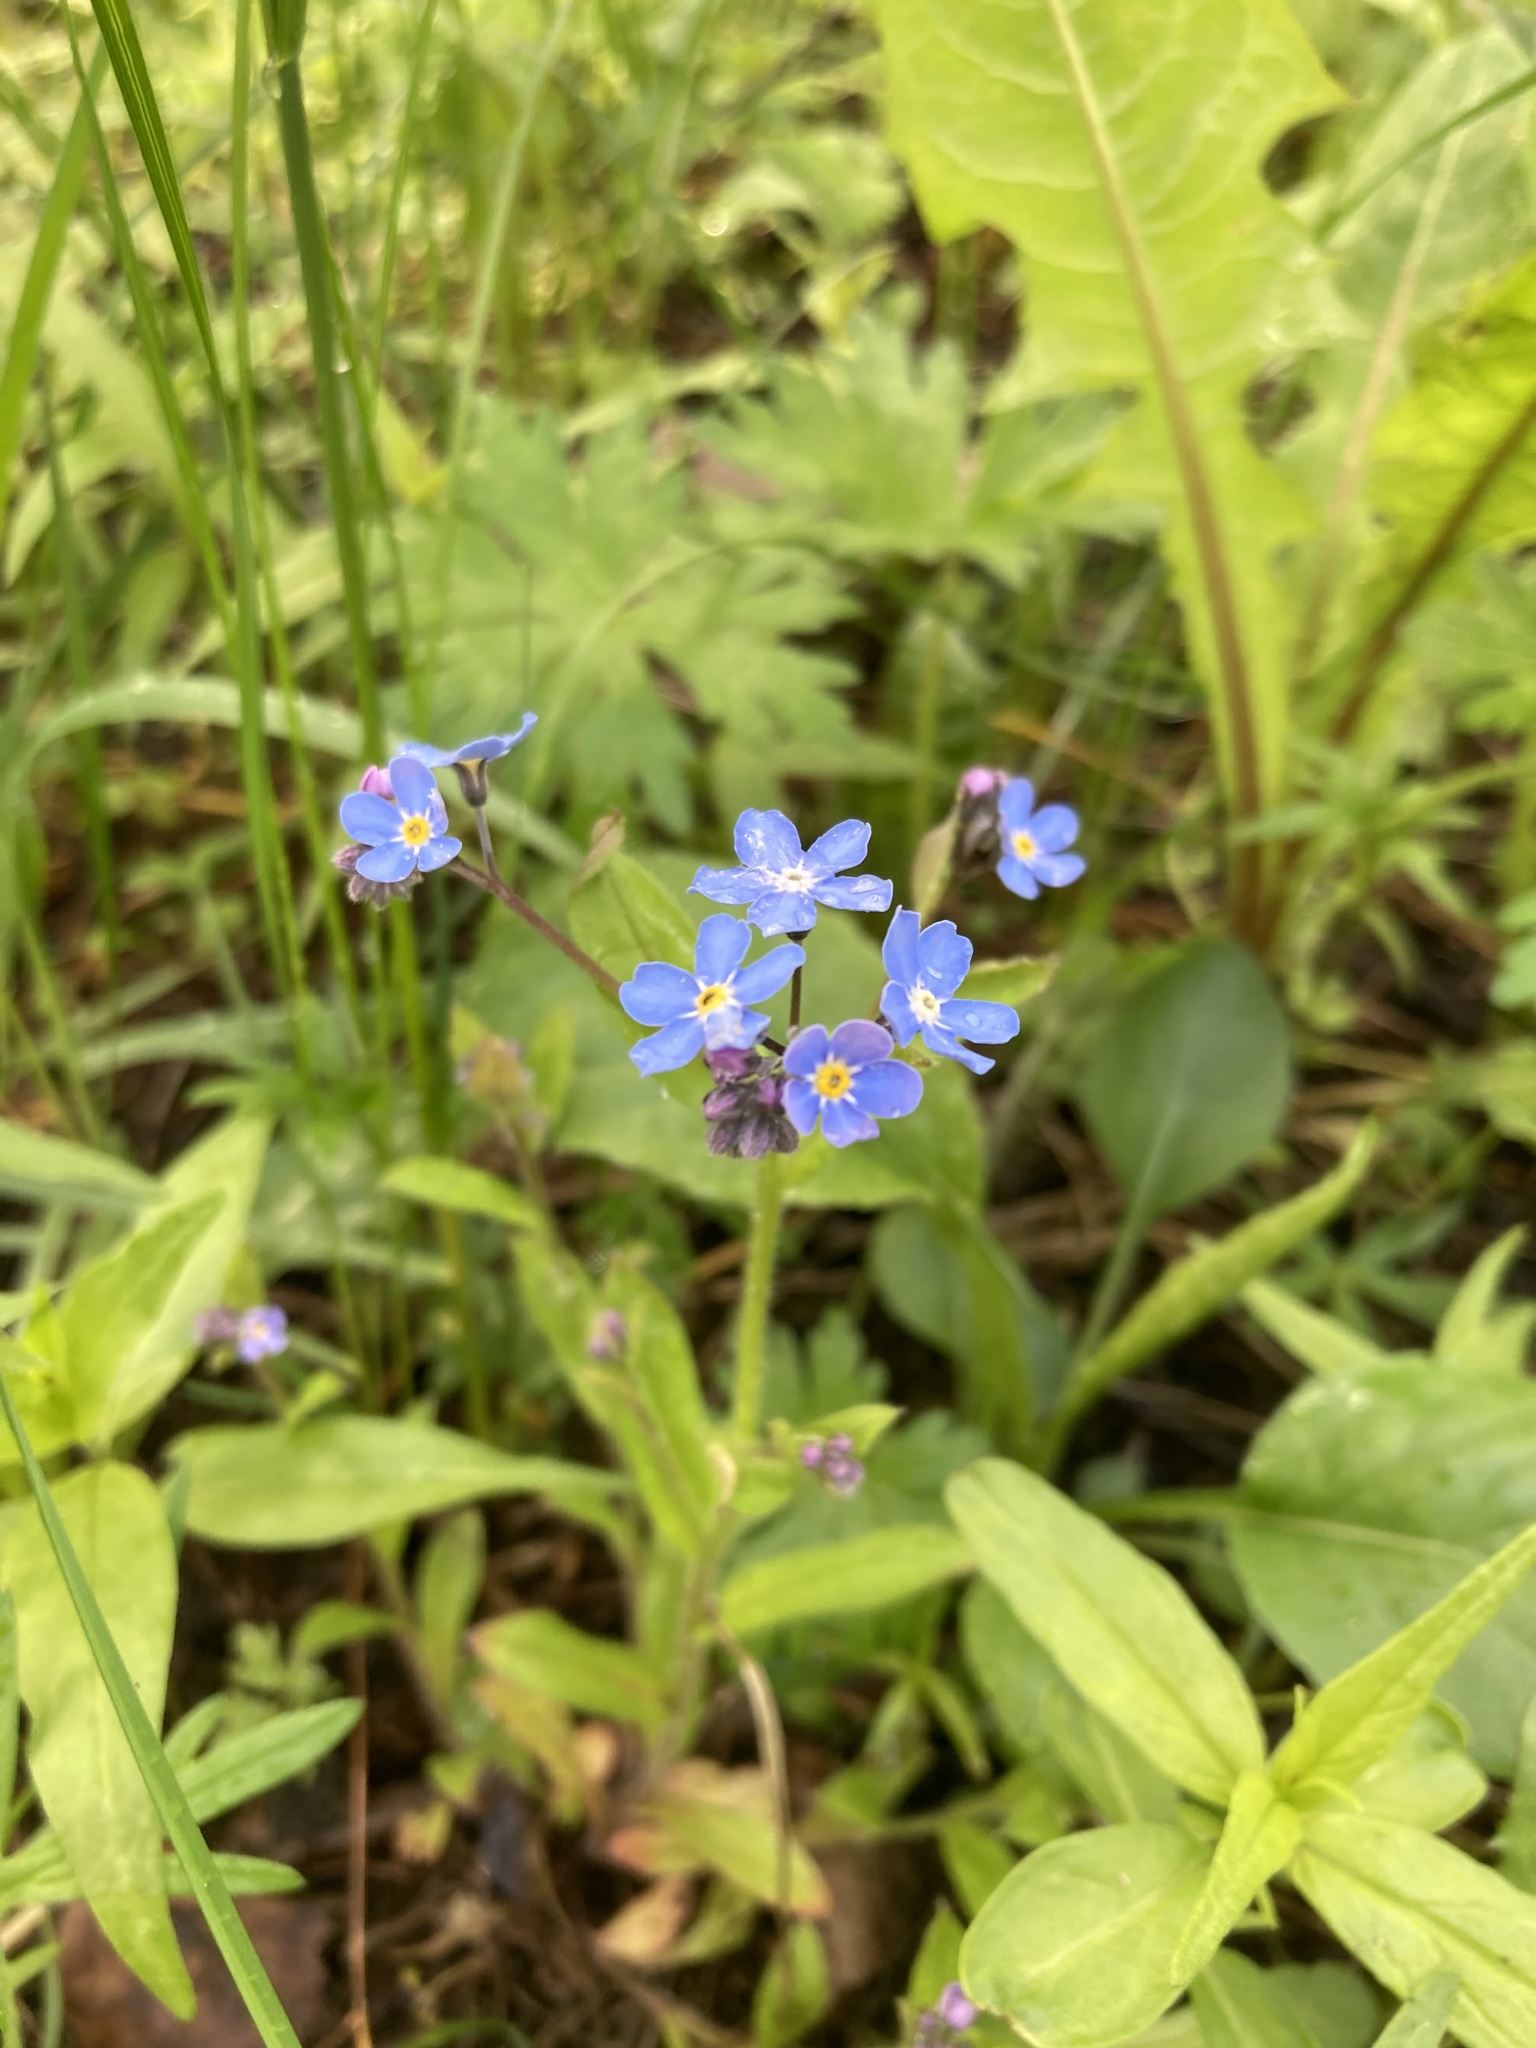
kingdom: Plantae
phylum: Tracheophyta
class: Magnoliopsida
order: Boraginales
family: Boraginaceae
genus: Myosotis
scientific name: Myosotis sylvatica
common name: Wood forget-me-not
